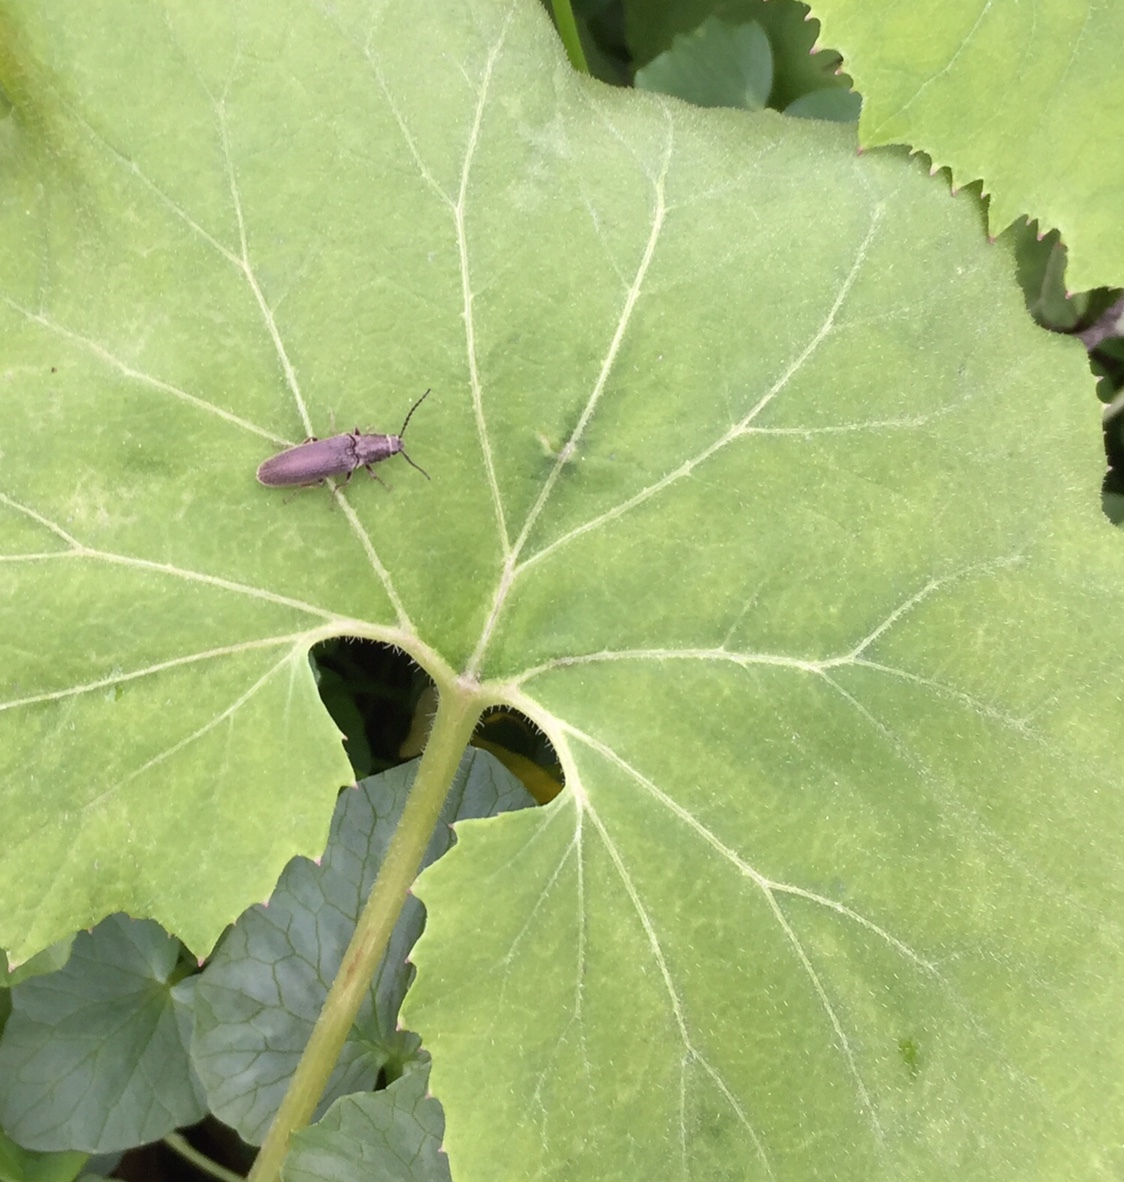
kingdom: Animalia
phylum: Arthropoda
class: Insecta
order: Coleoptera
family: Elateridae
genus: Sylvanelater
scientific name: Sylvanelater cylindriformis
